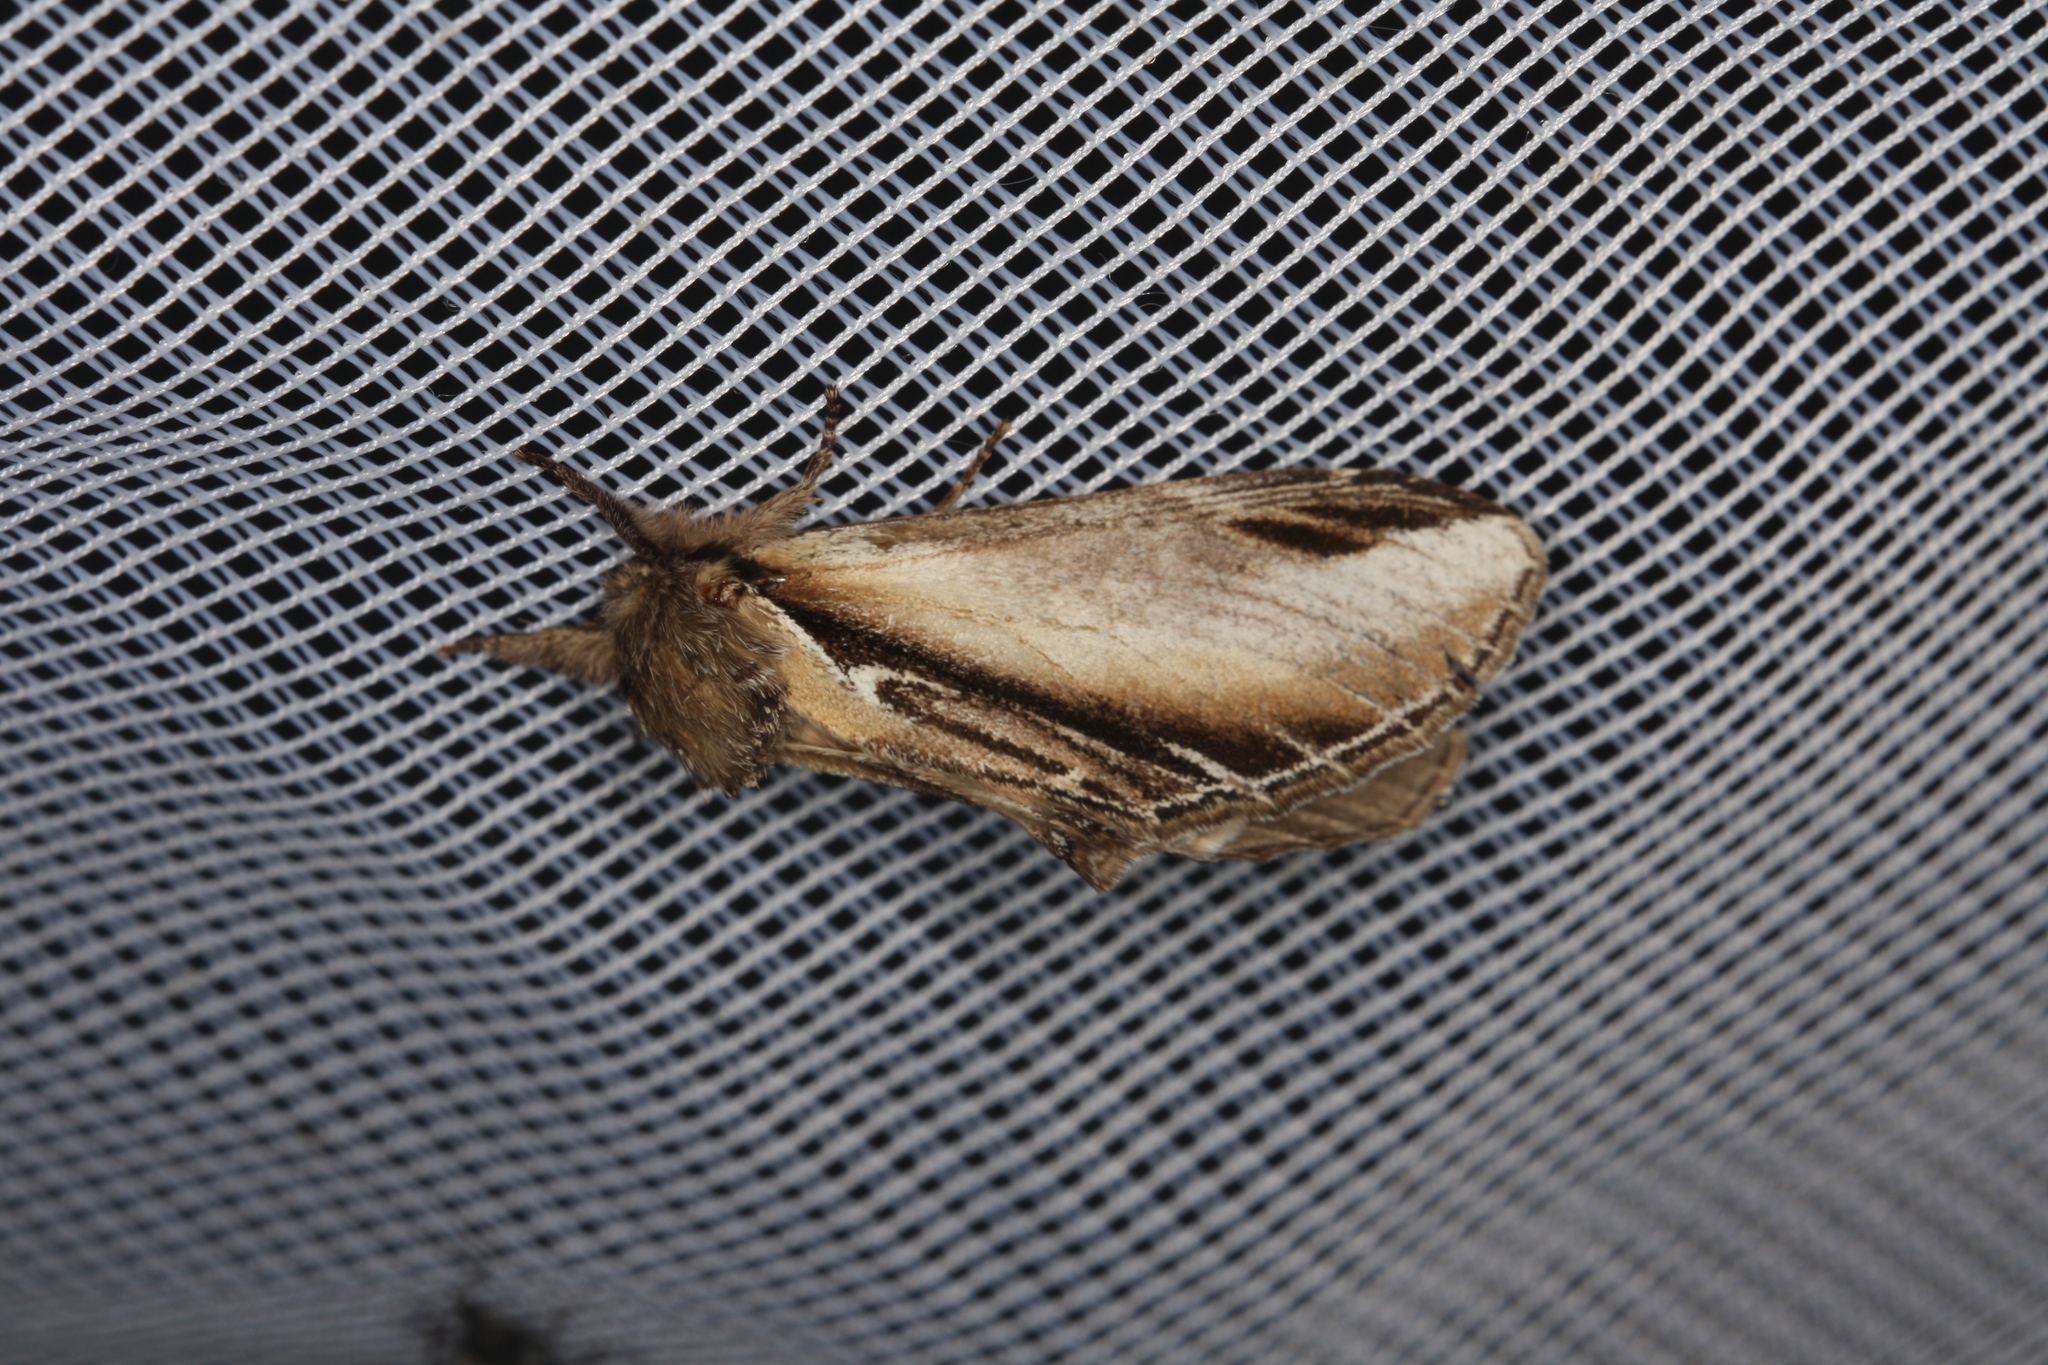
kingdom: Animalia
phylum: Arthropoda
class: Insecta
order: Lepidoptera
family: Notodontidae
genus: Pheosia
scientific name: Pheosia tremula
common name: Swallow prominent
